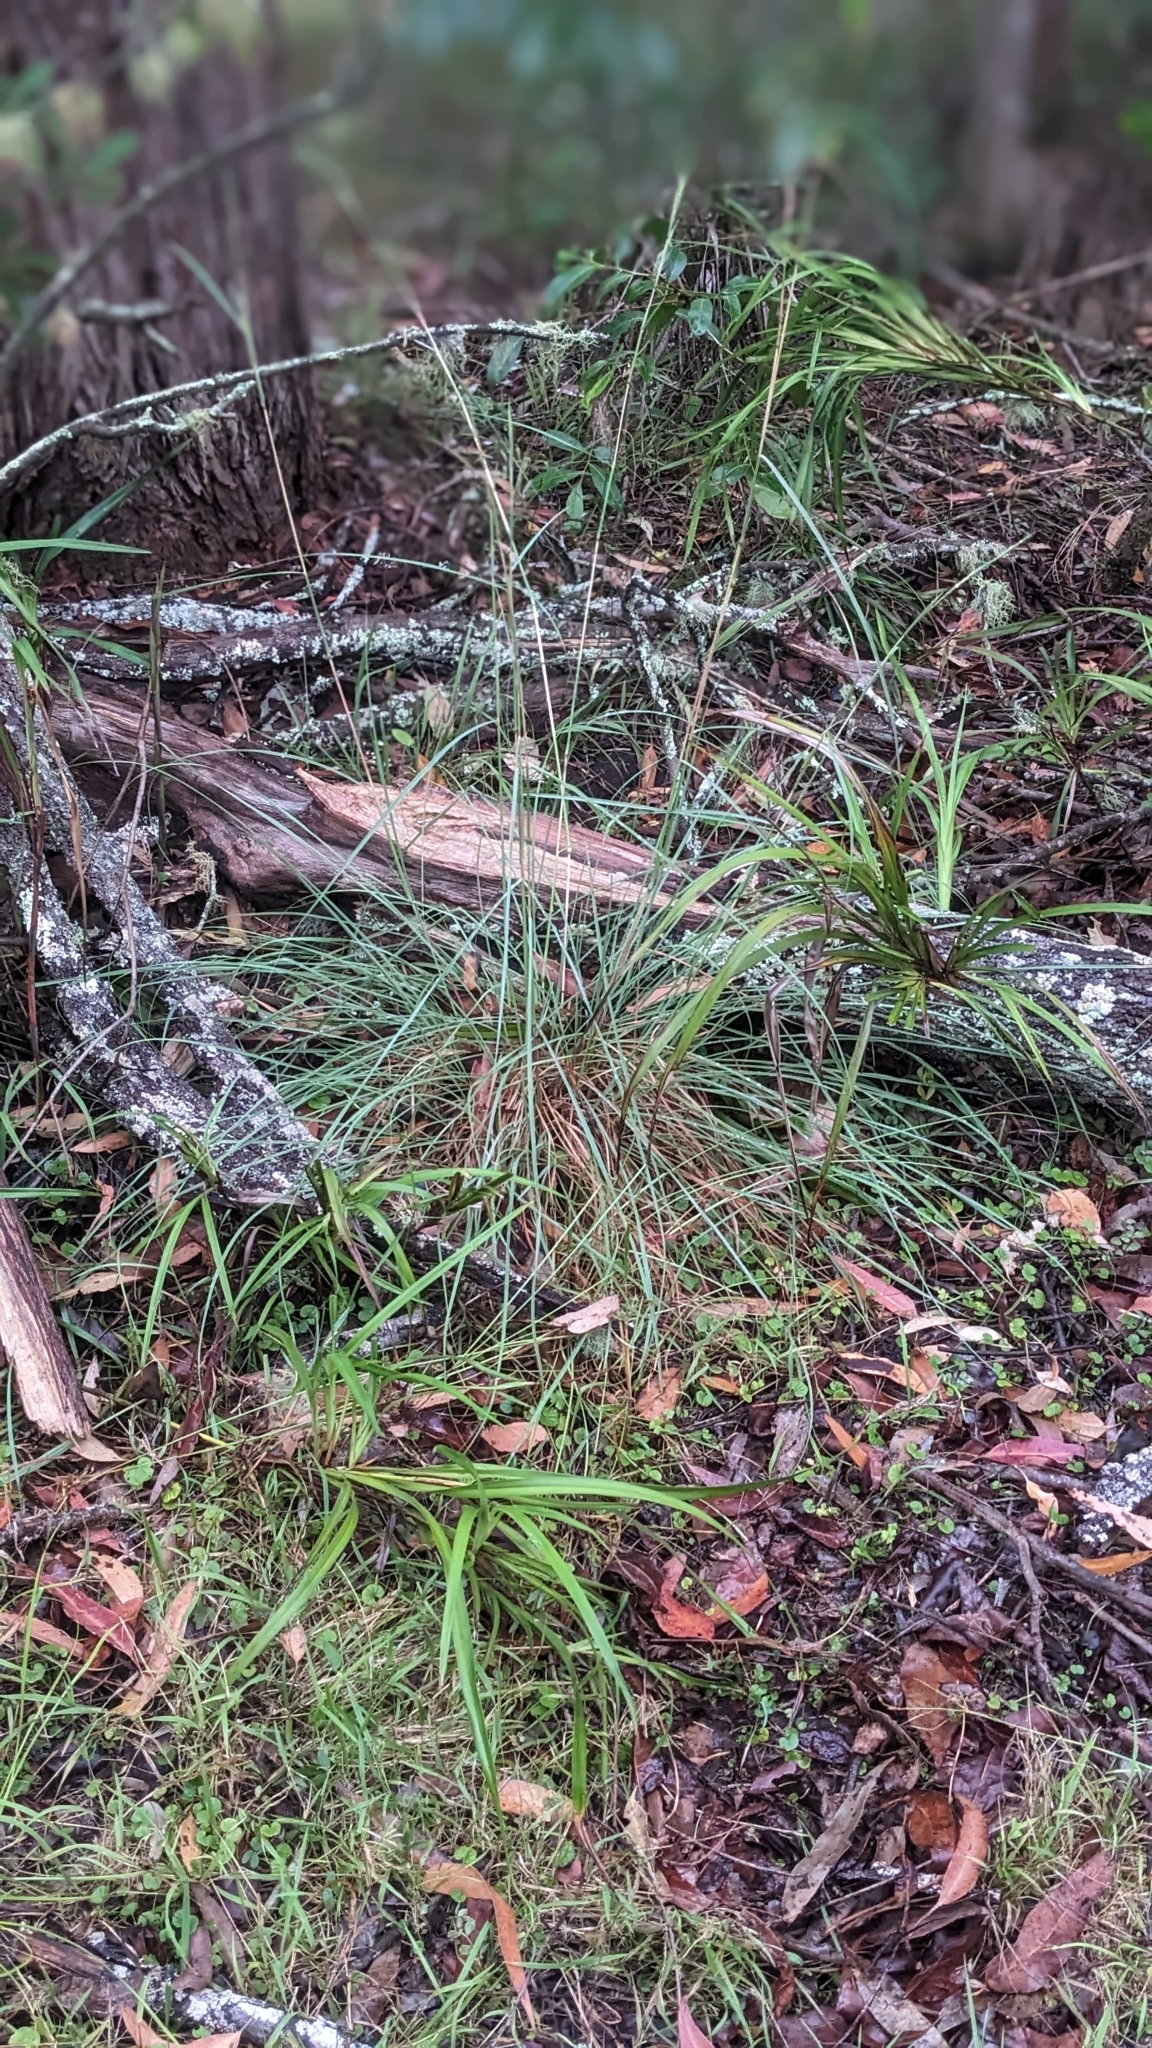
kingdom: Plantae
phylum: Tracheophyta
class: Liliopsida
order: Poales
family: Poaceae
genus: Cymbopogon
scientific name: Cymbopogon refractus
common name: Barbwire grass
